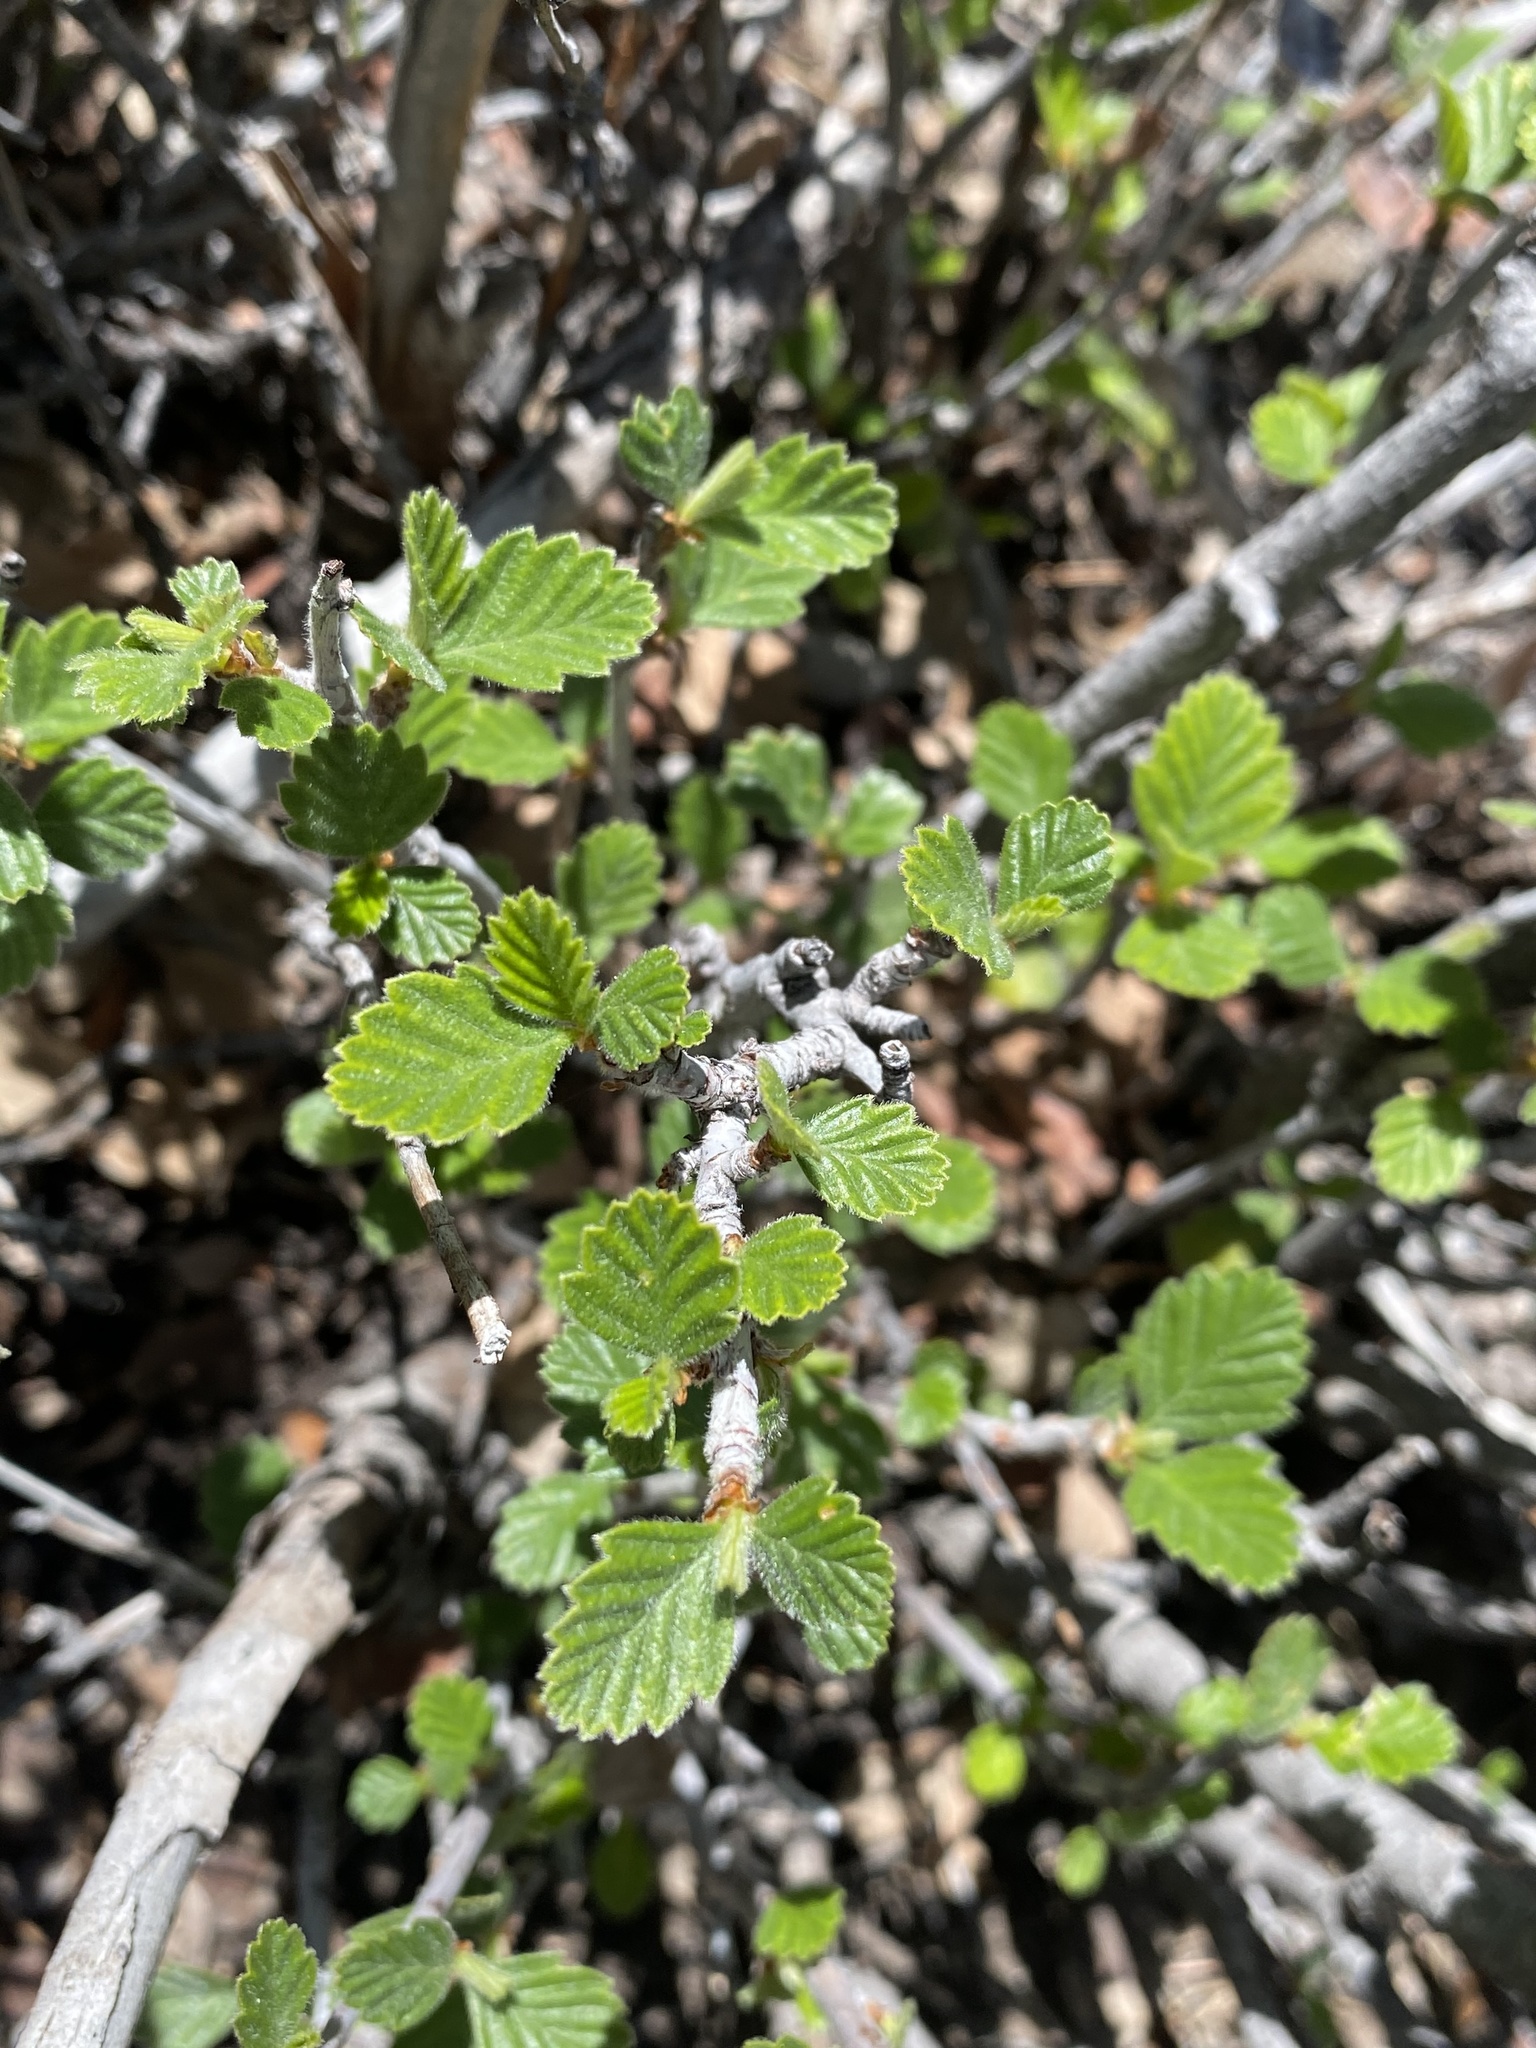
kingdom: Plantae
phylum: Tracheophyta
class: Magnoliopsida
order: Rosales
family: Rosaceae
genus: Cercocarpus
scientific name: Cercocarpus montanus
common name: Alder-leaf cercocarpus
